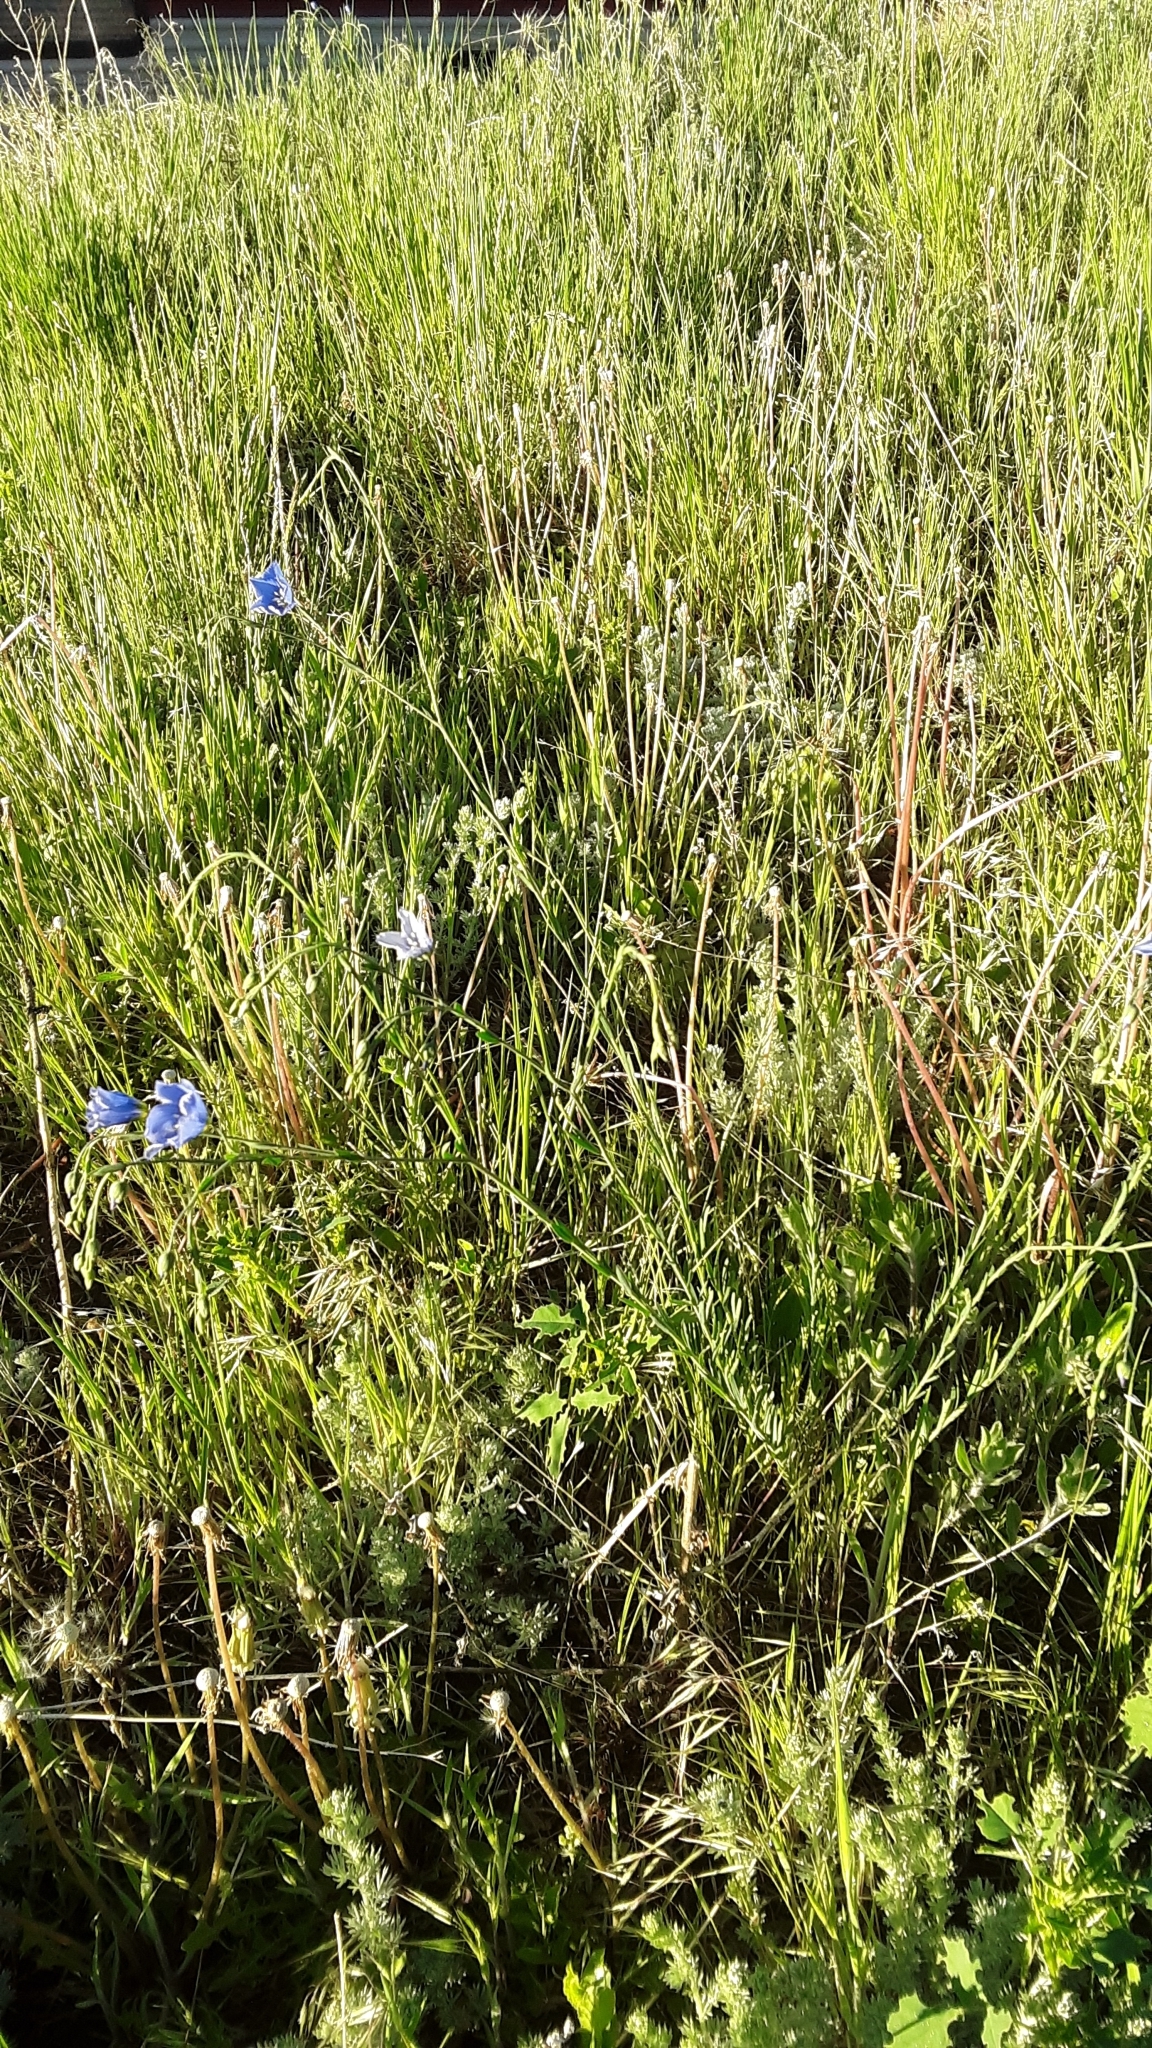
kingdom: Plantae
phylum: Tracheophyta
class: Magnoliopsida
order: Malpighiales
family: Linaceae
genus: Linum
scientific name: Linum lewisii
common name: Prairie flax
